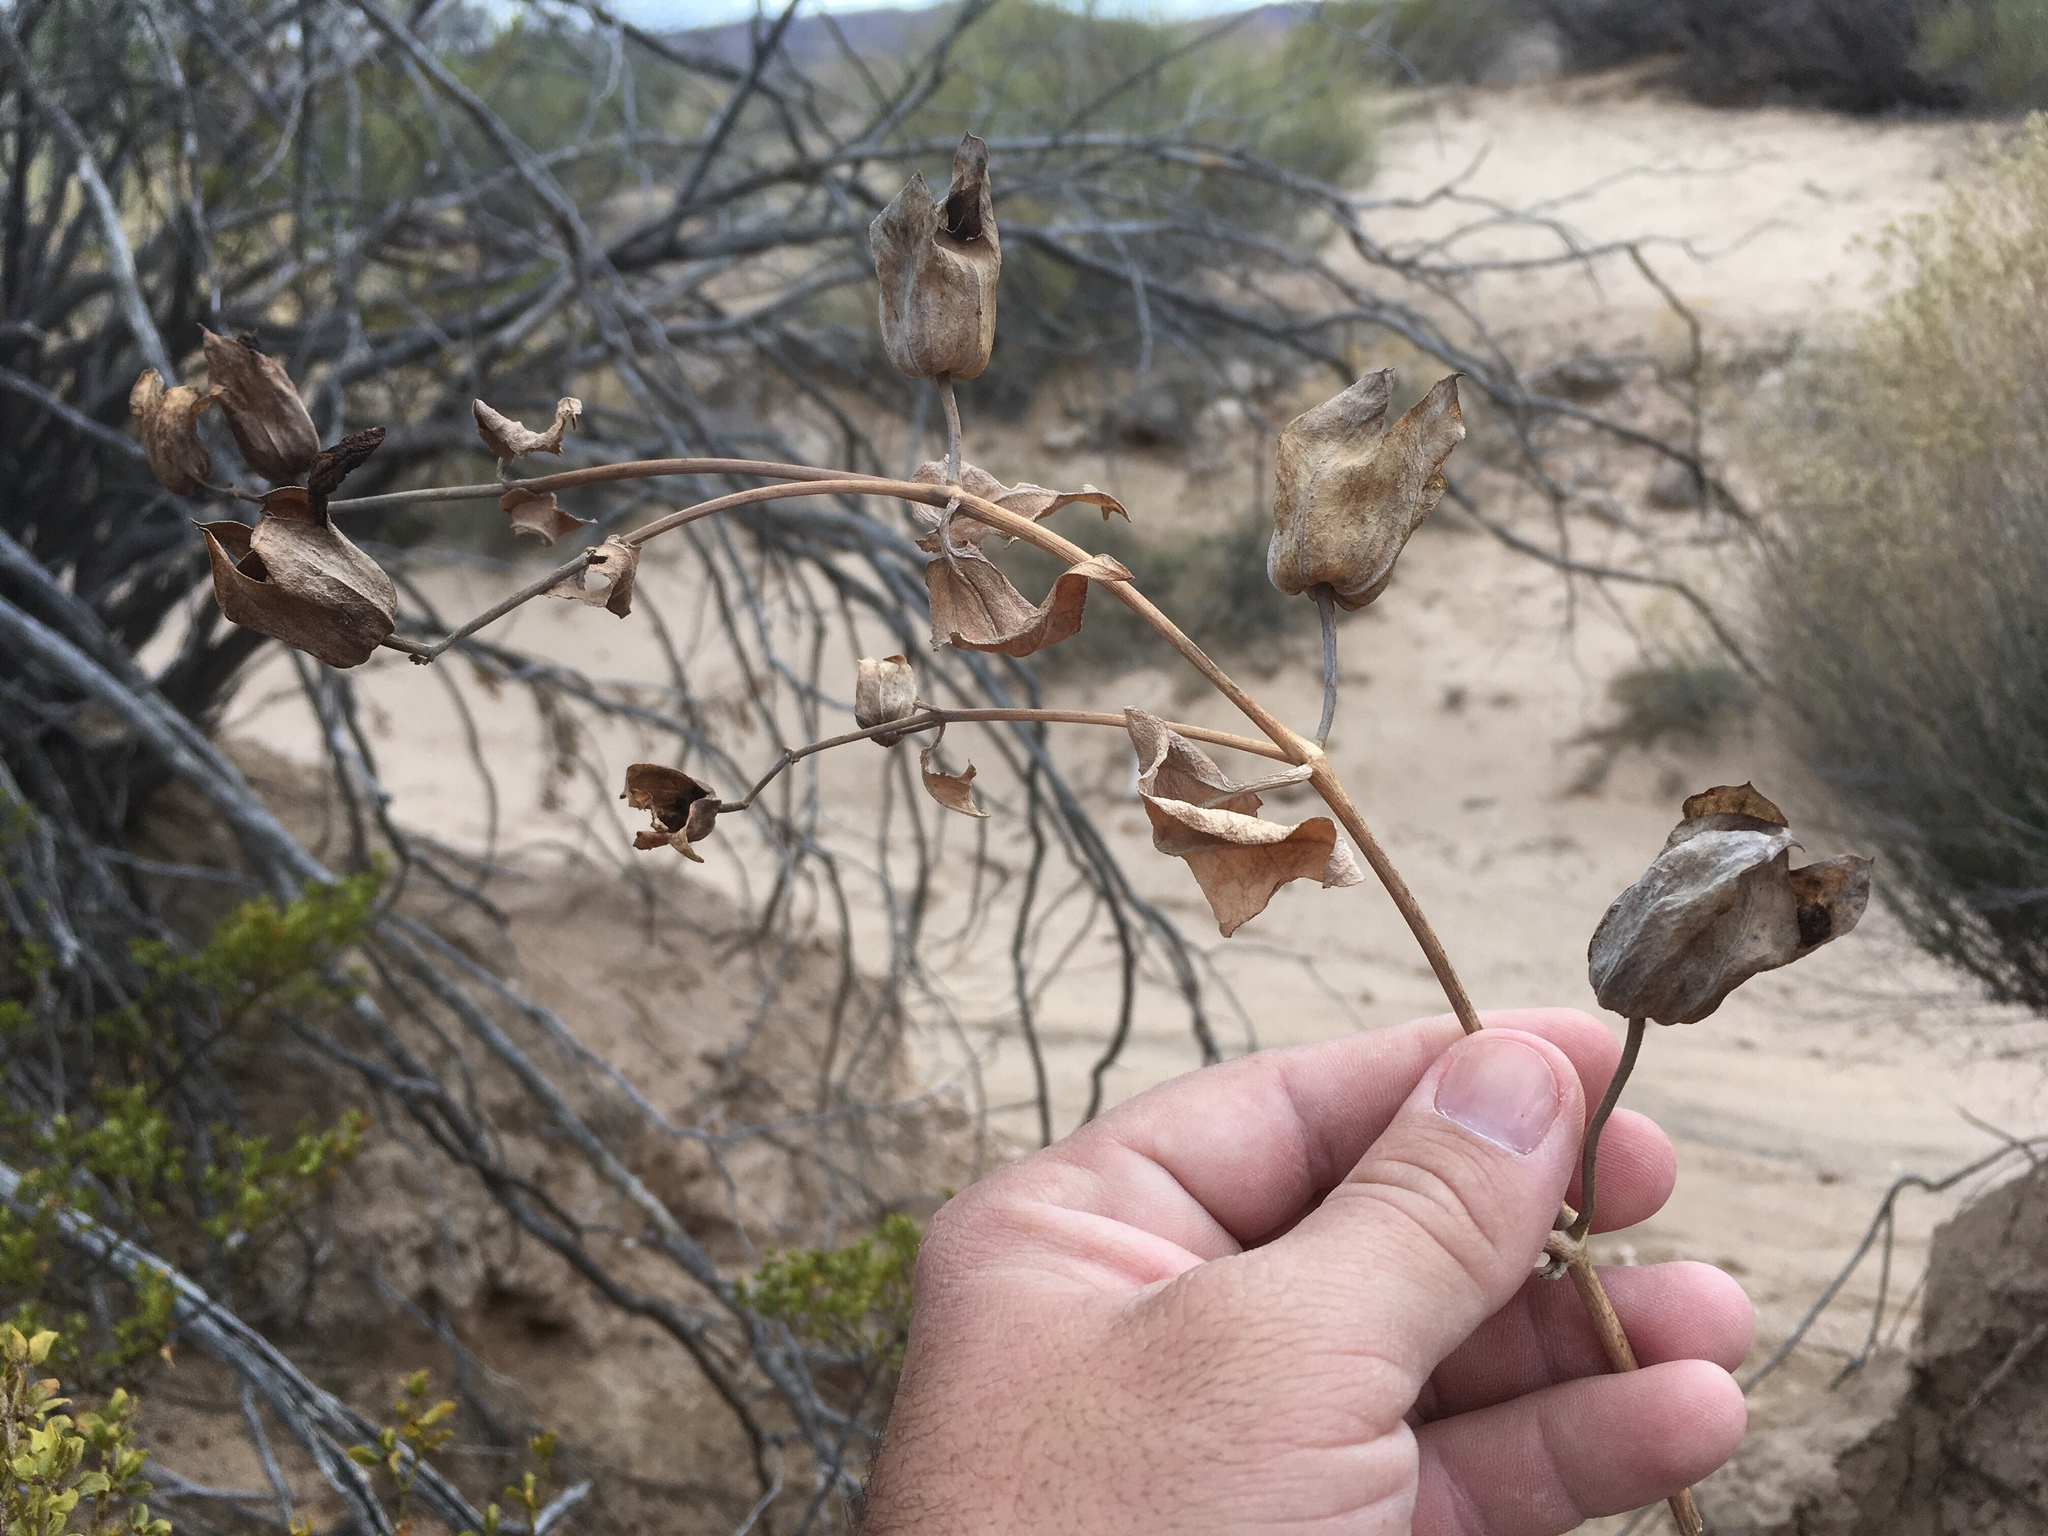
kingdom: Plantae
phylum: Tracheophyta
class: Magnoliopsida
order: Caryophyllales
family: Nyctaginaceae
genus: Mirabilis
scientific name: Mirabilis multiflora
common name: Froebel's four-o'clock
